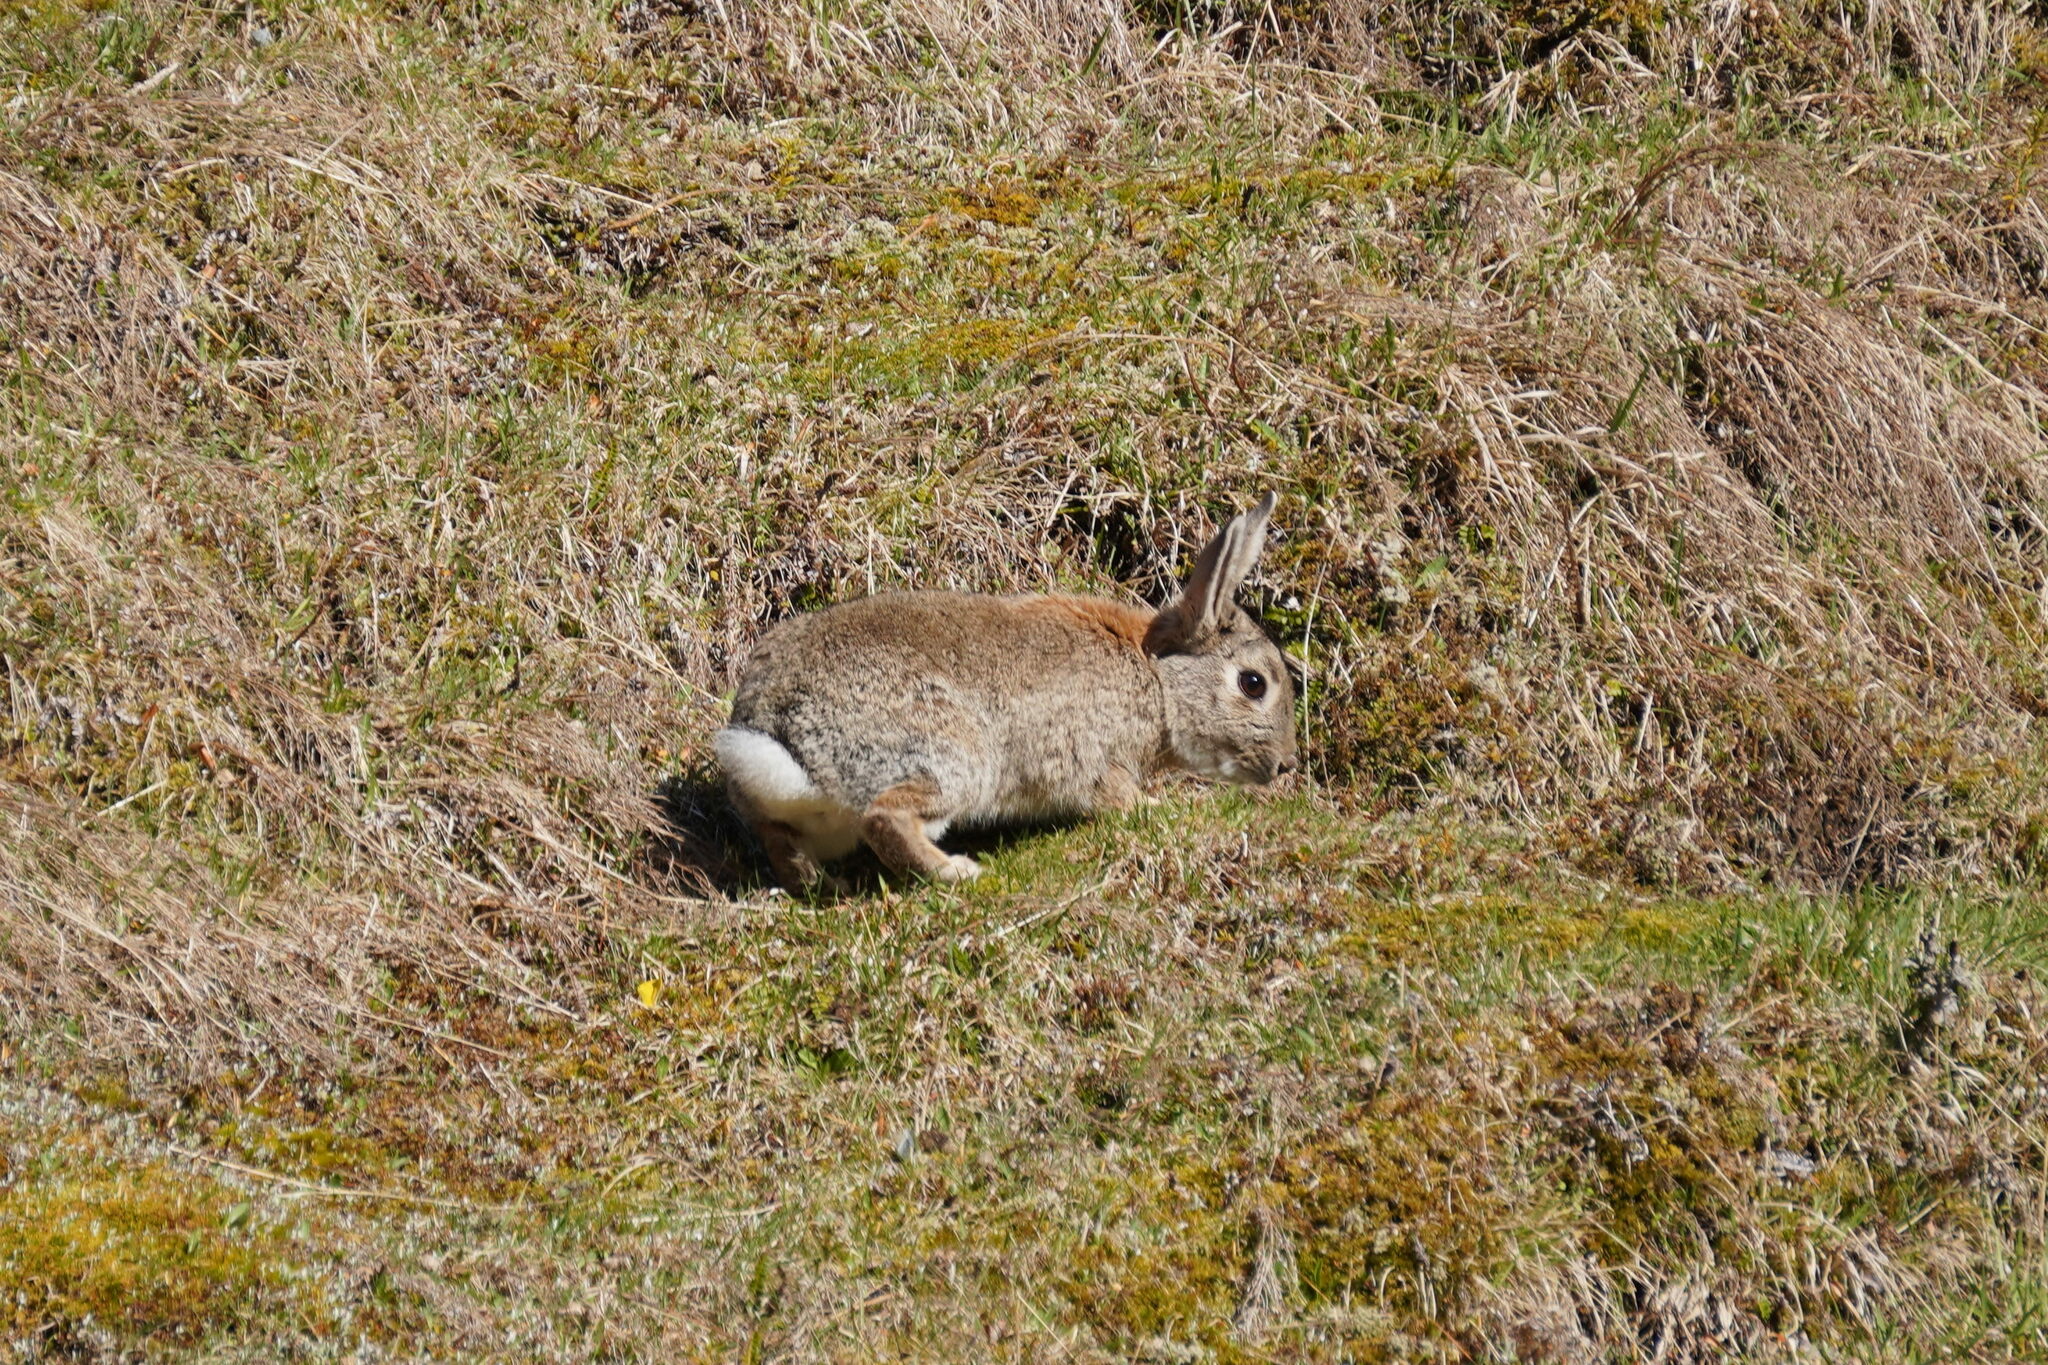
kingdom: Animalia
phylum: Chordata
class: Mammalia
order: Lagomorpha
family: Leporidae
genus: Oryctolagus
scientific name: Oryctolagus cuniculus
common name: European rabbit
